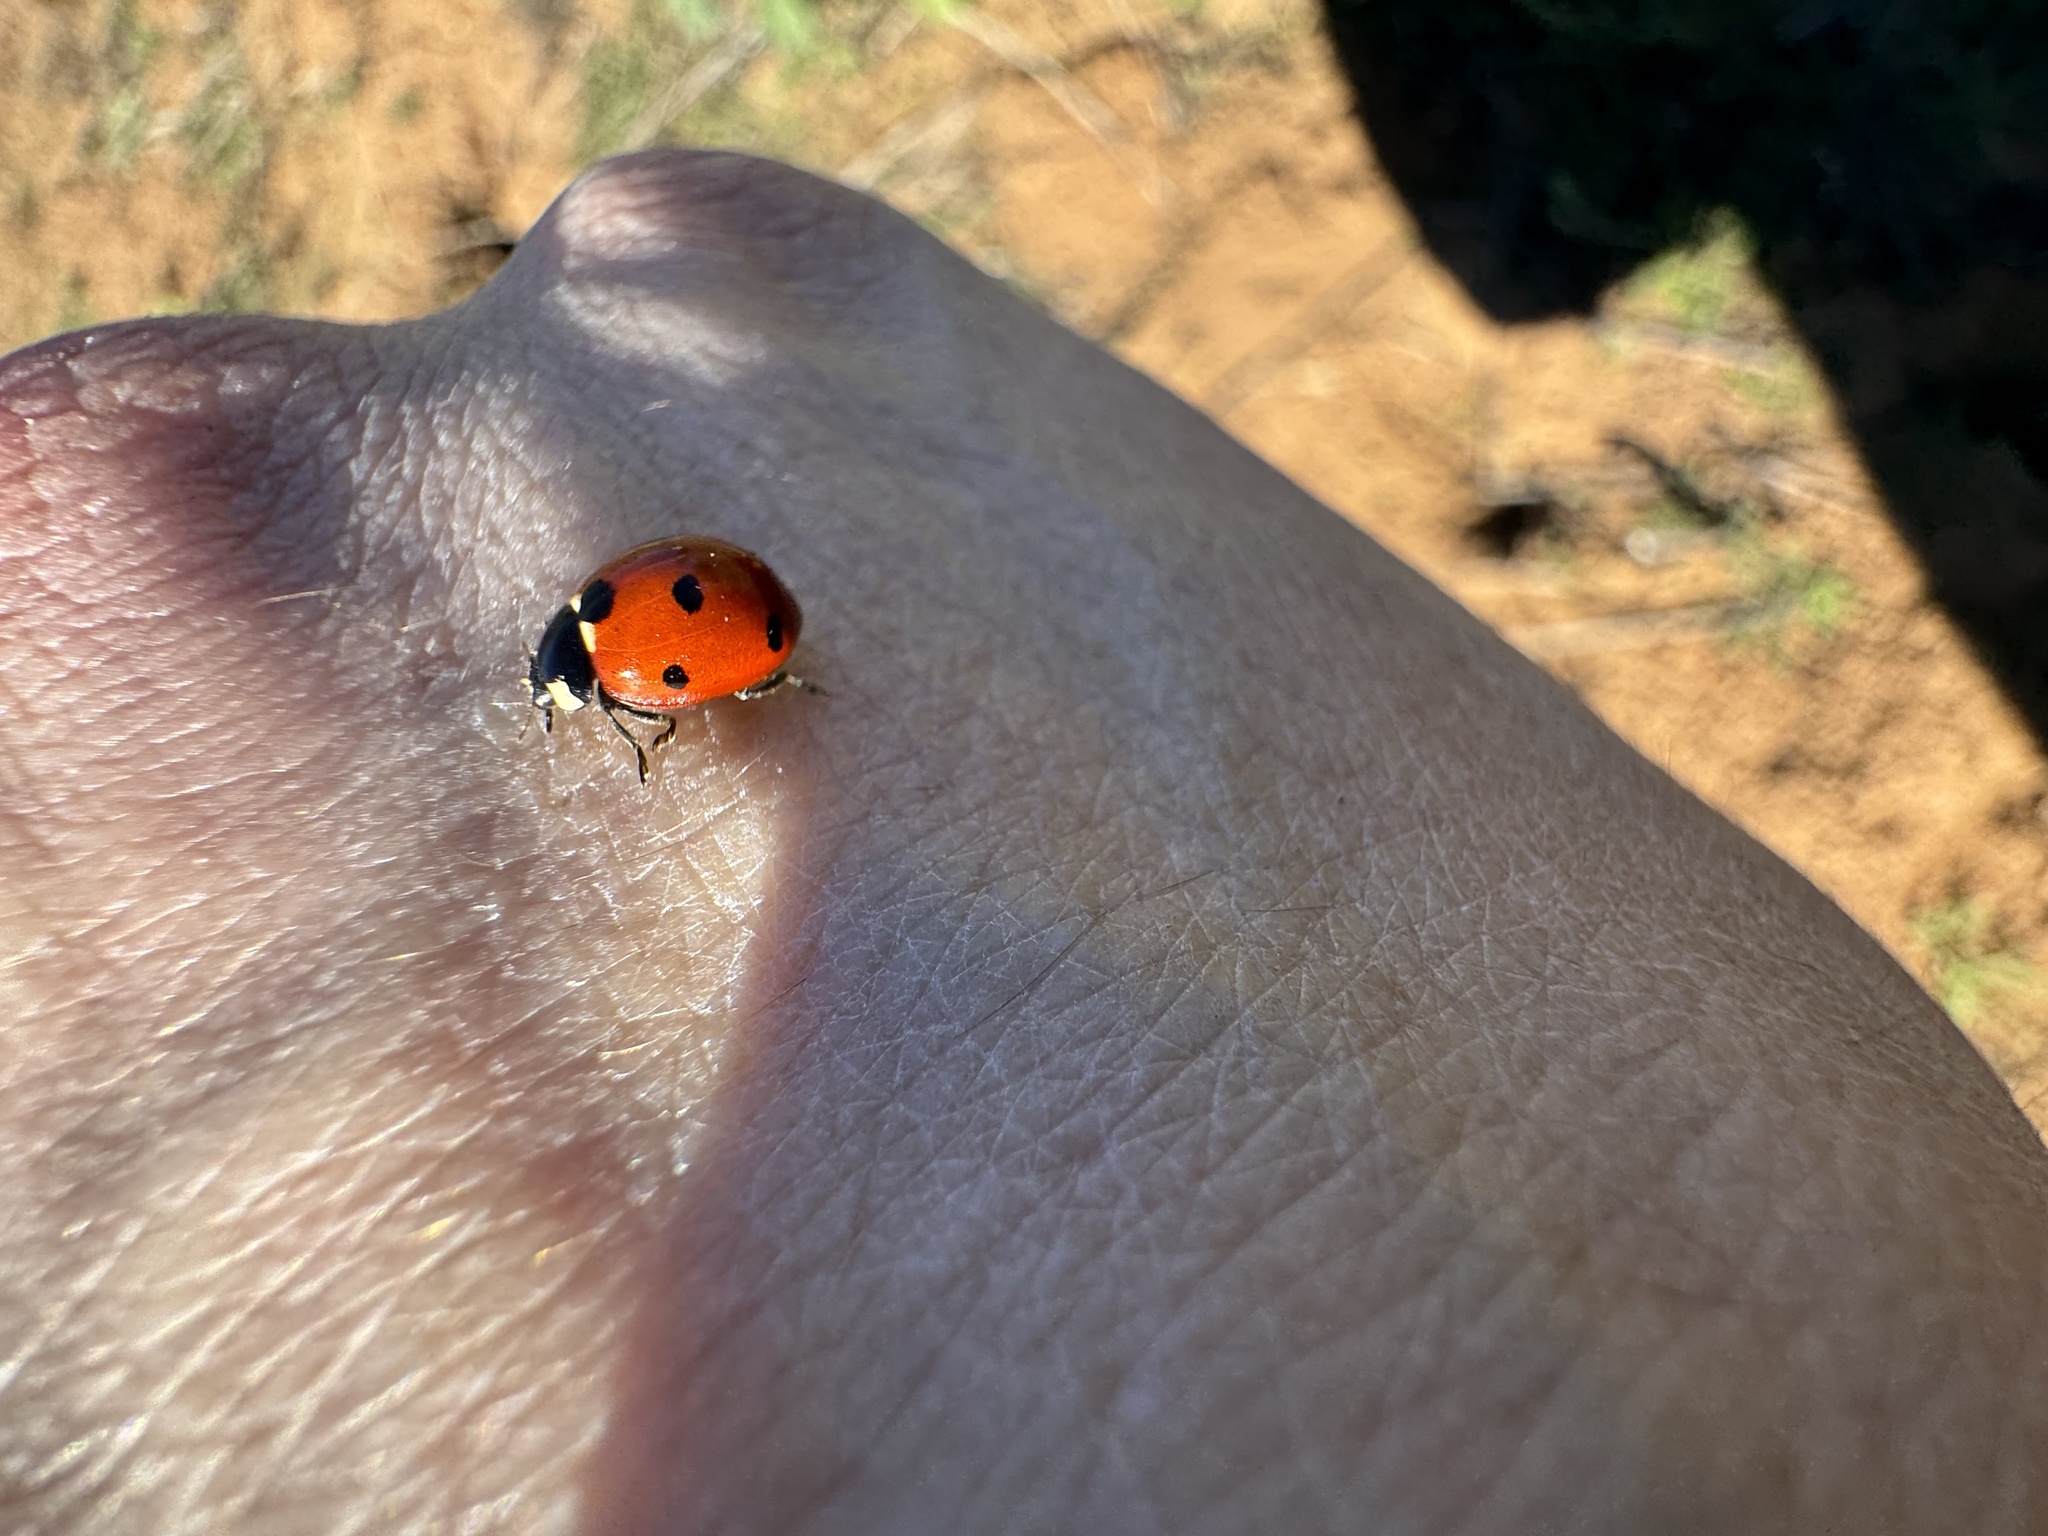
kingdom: Animalia
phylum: Arthropoda
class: Insecta
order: Coleoptera
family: Coccinellidae
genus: Coccinella
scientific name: Coccinella septempunctata
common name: Sevenspotted lady beetle
